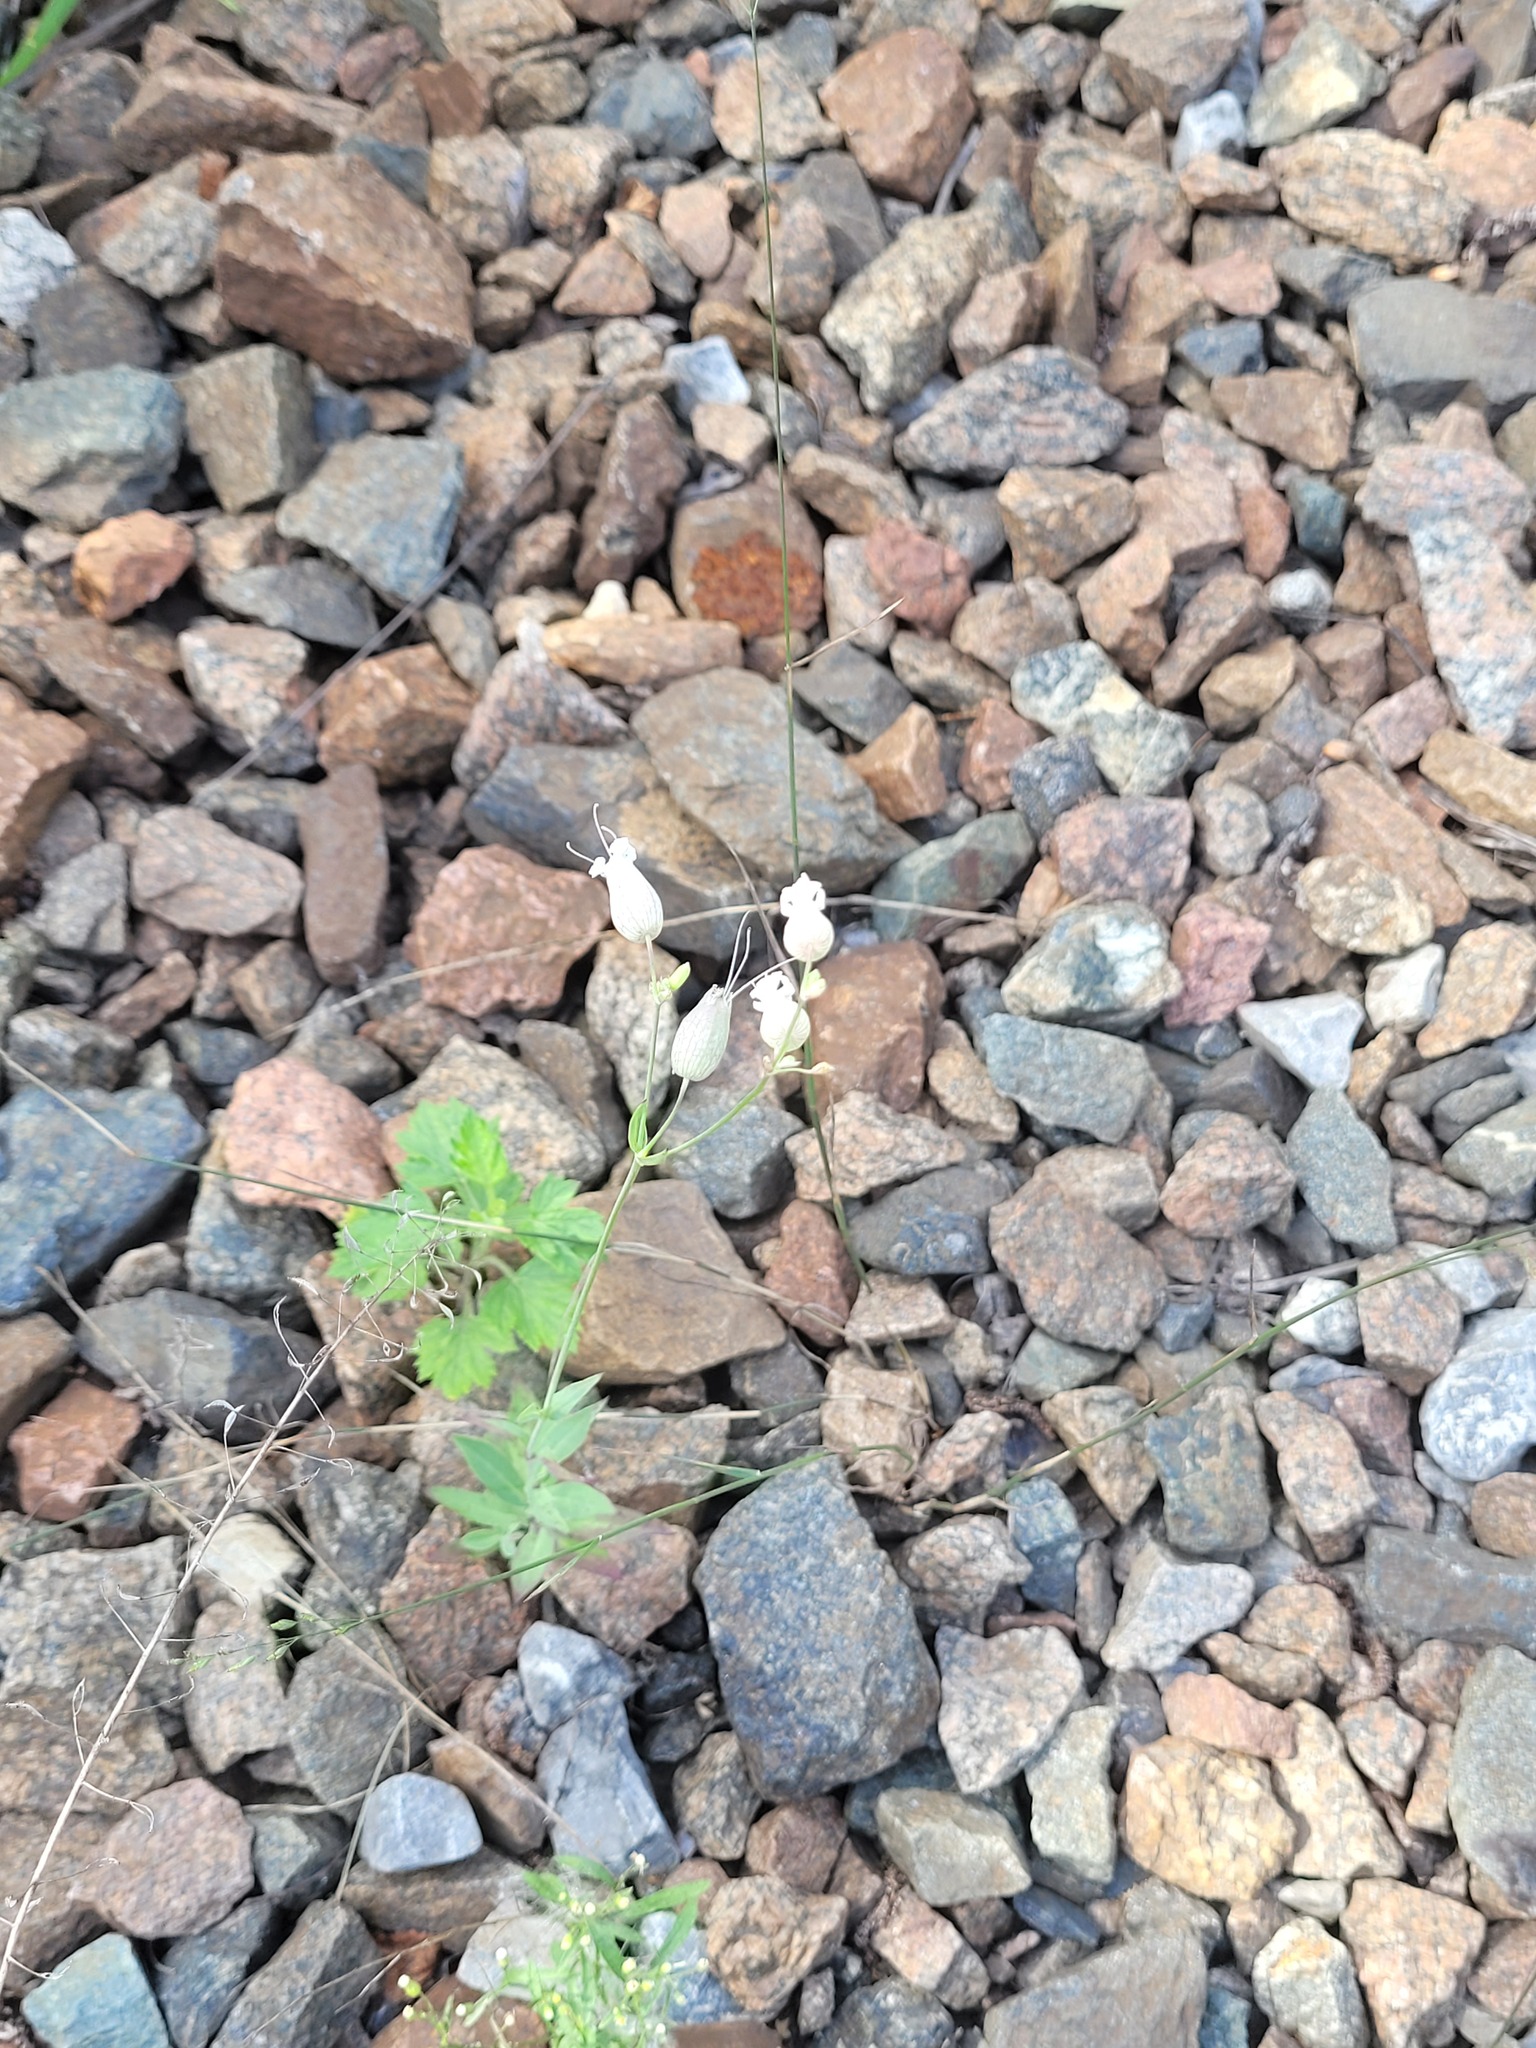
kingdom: Plantae
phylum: Tracheophyta
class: Magnoliopsida
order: Caryophyllales
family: Caryophyllaceae
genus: Silene
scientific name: Silene vulgaris
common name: Bladder campion
